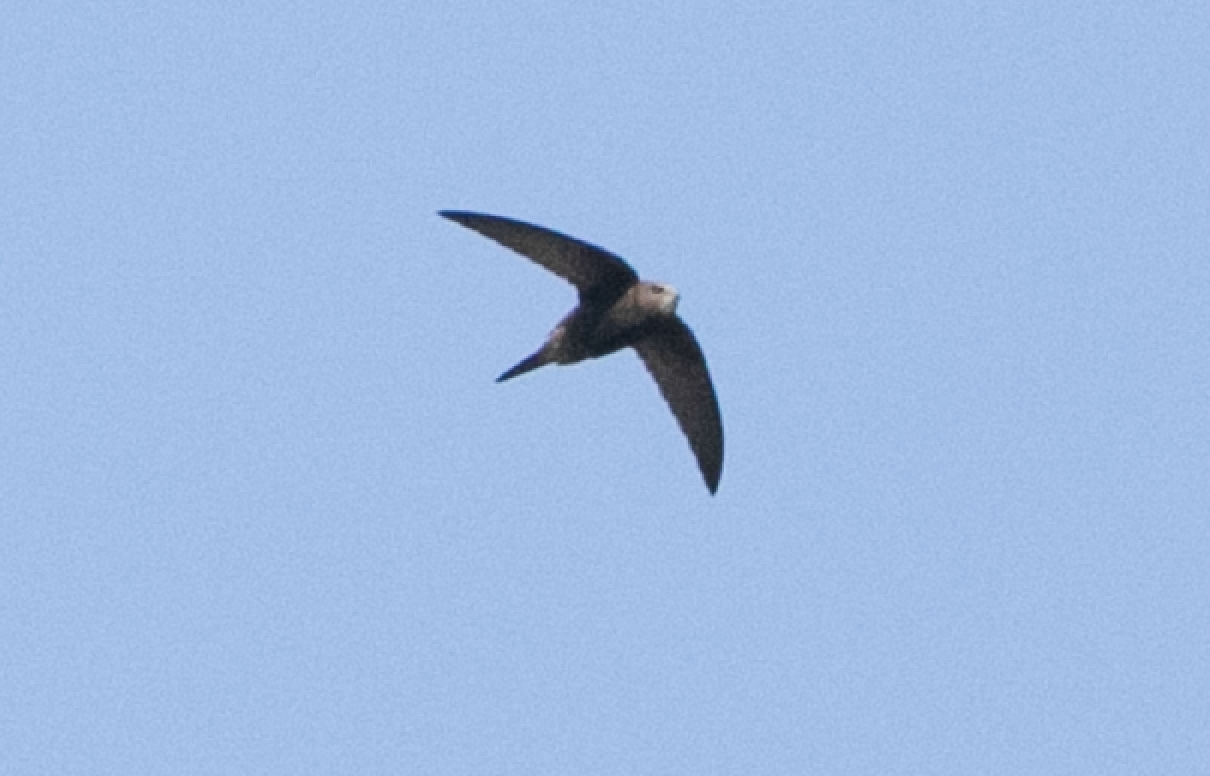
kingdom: Animalia
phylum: Chordata
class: Aves
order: Apodiformes
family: Apodidae
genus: Apus
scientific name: Apus apus
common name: Common swift
